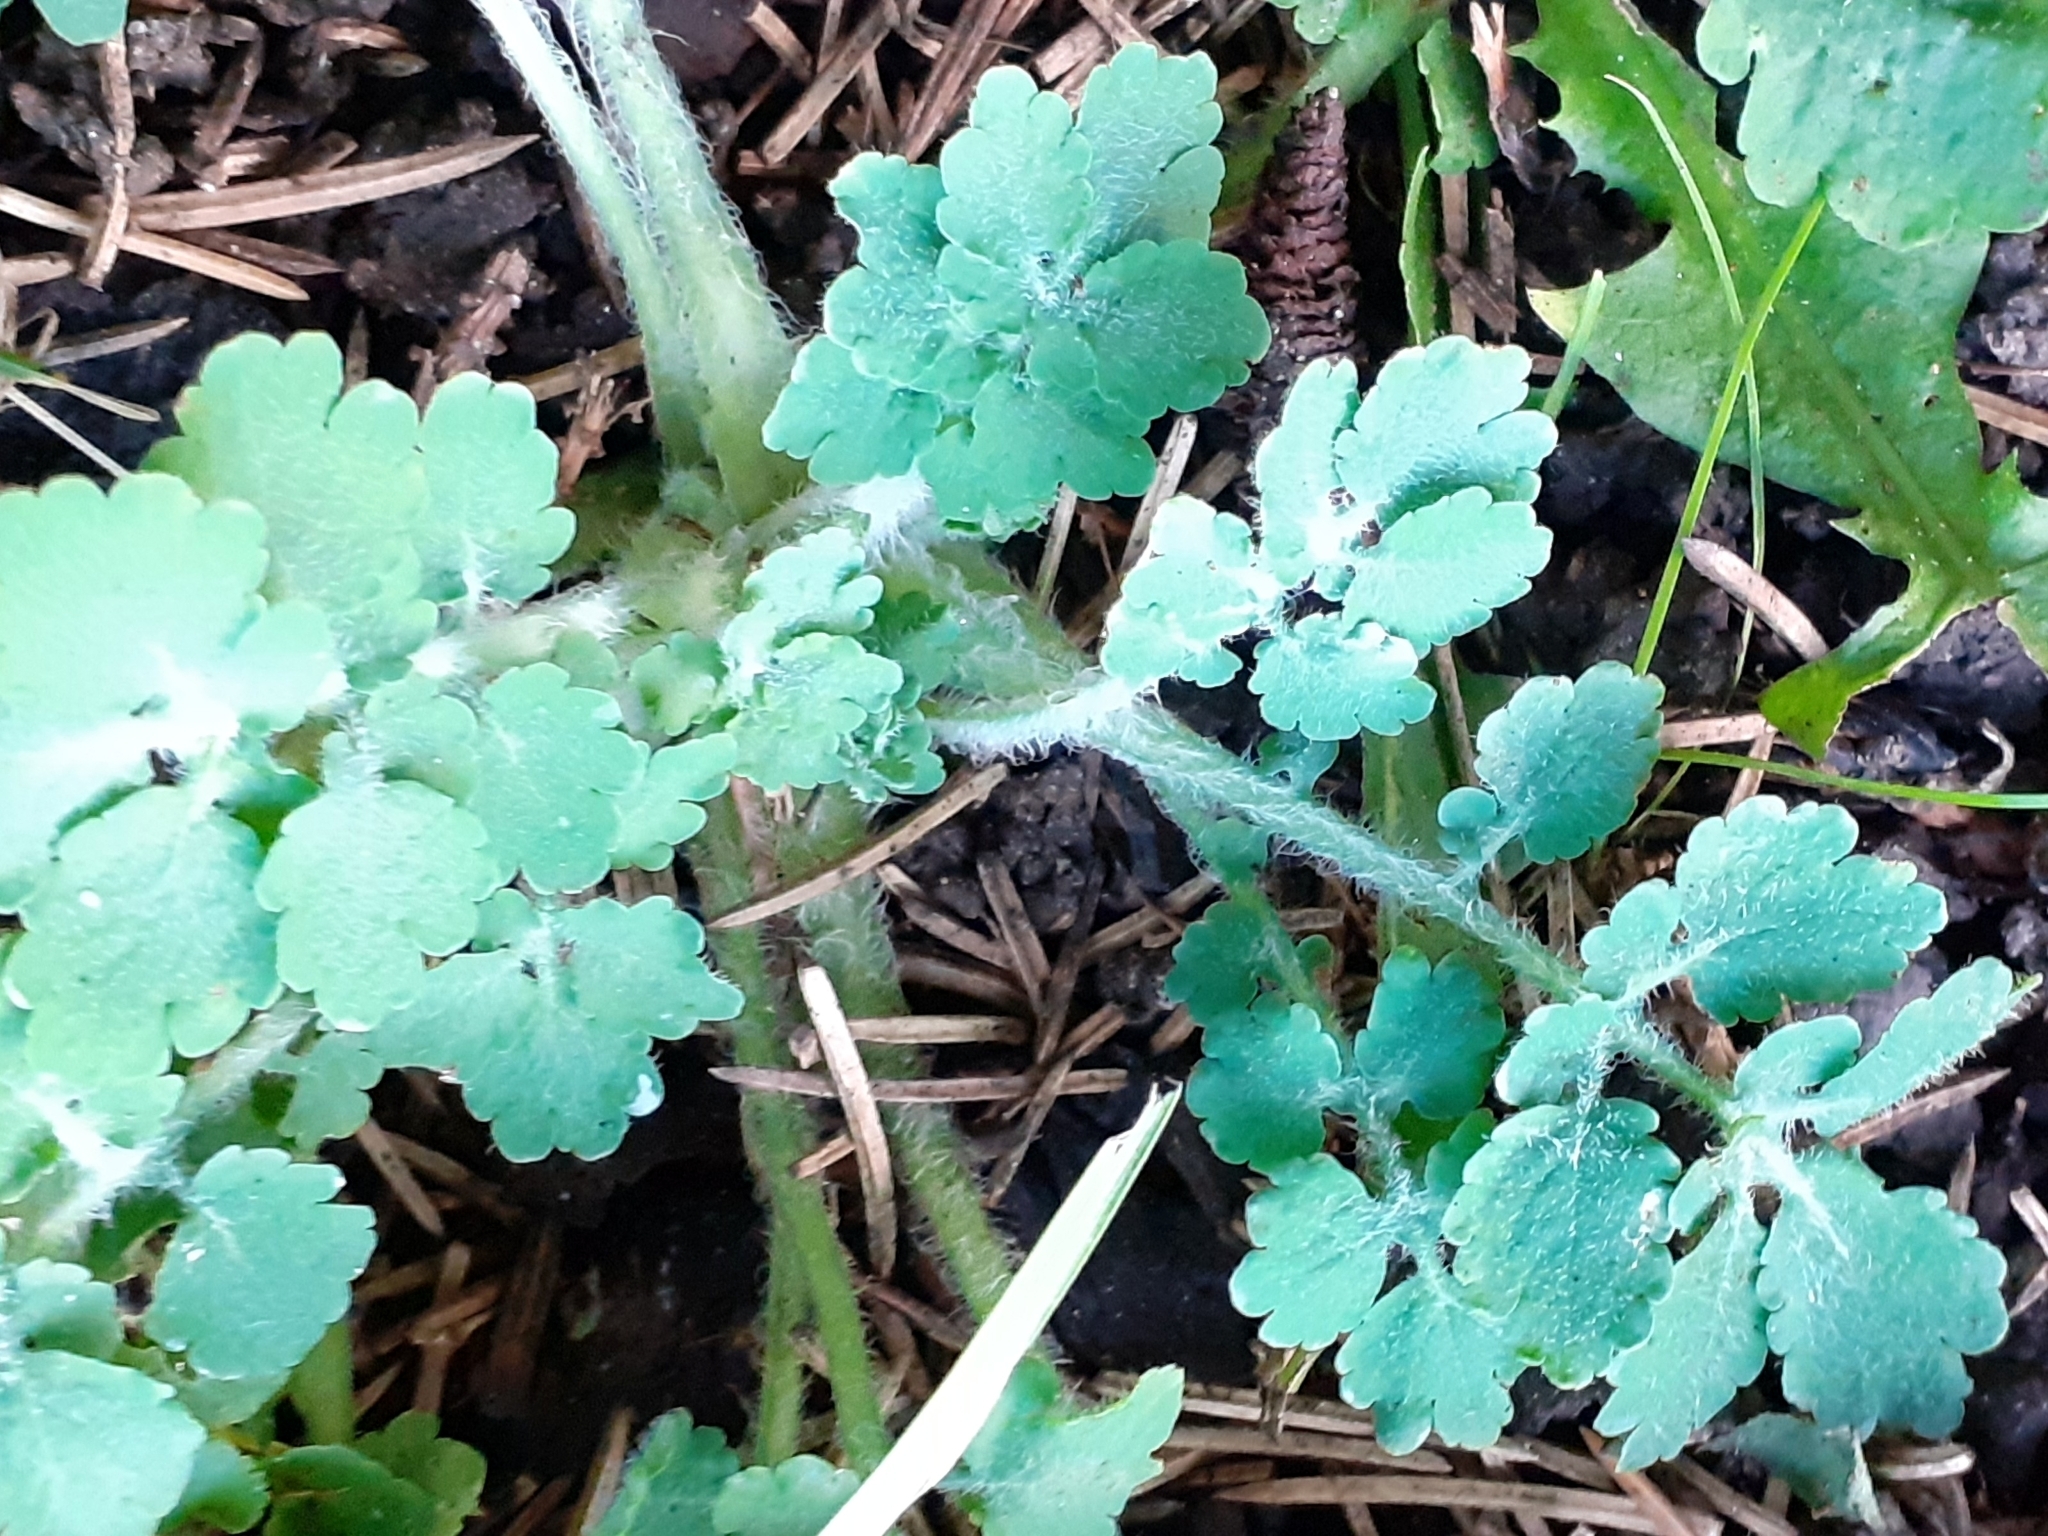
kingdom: Plantae
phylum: Tracheophyta
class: Magnoliopsida
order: Ranunculales
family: Papaveraceae
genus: Chelidonium
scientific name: Chelidonium majus
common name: Greater celandine
